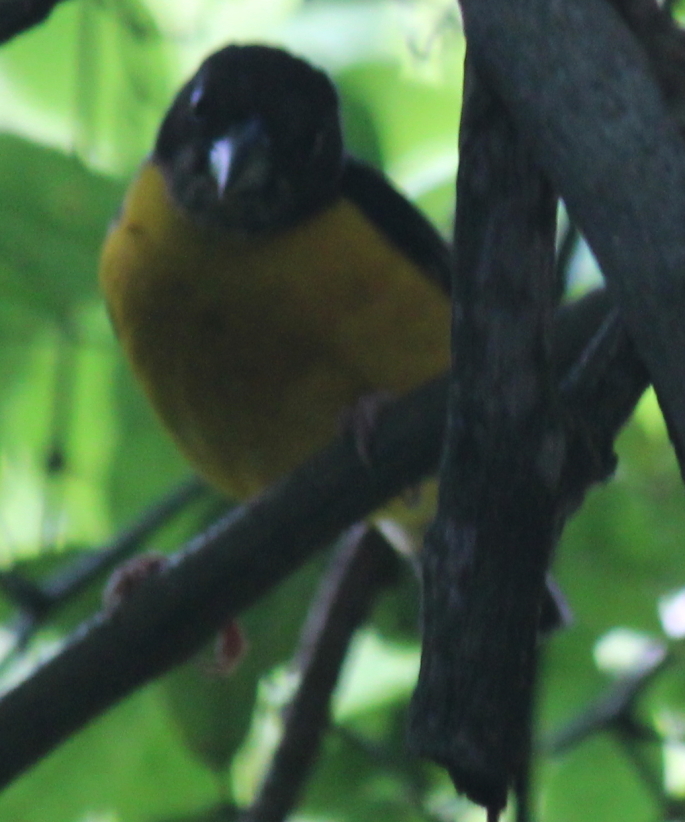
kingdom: Animalia
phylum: Chordata
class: Aves
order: Passeriformes
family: Ploceidae
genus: Ploceus
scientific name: Ploceus bicolor
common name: Dark-backed weaver
